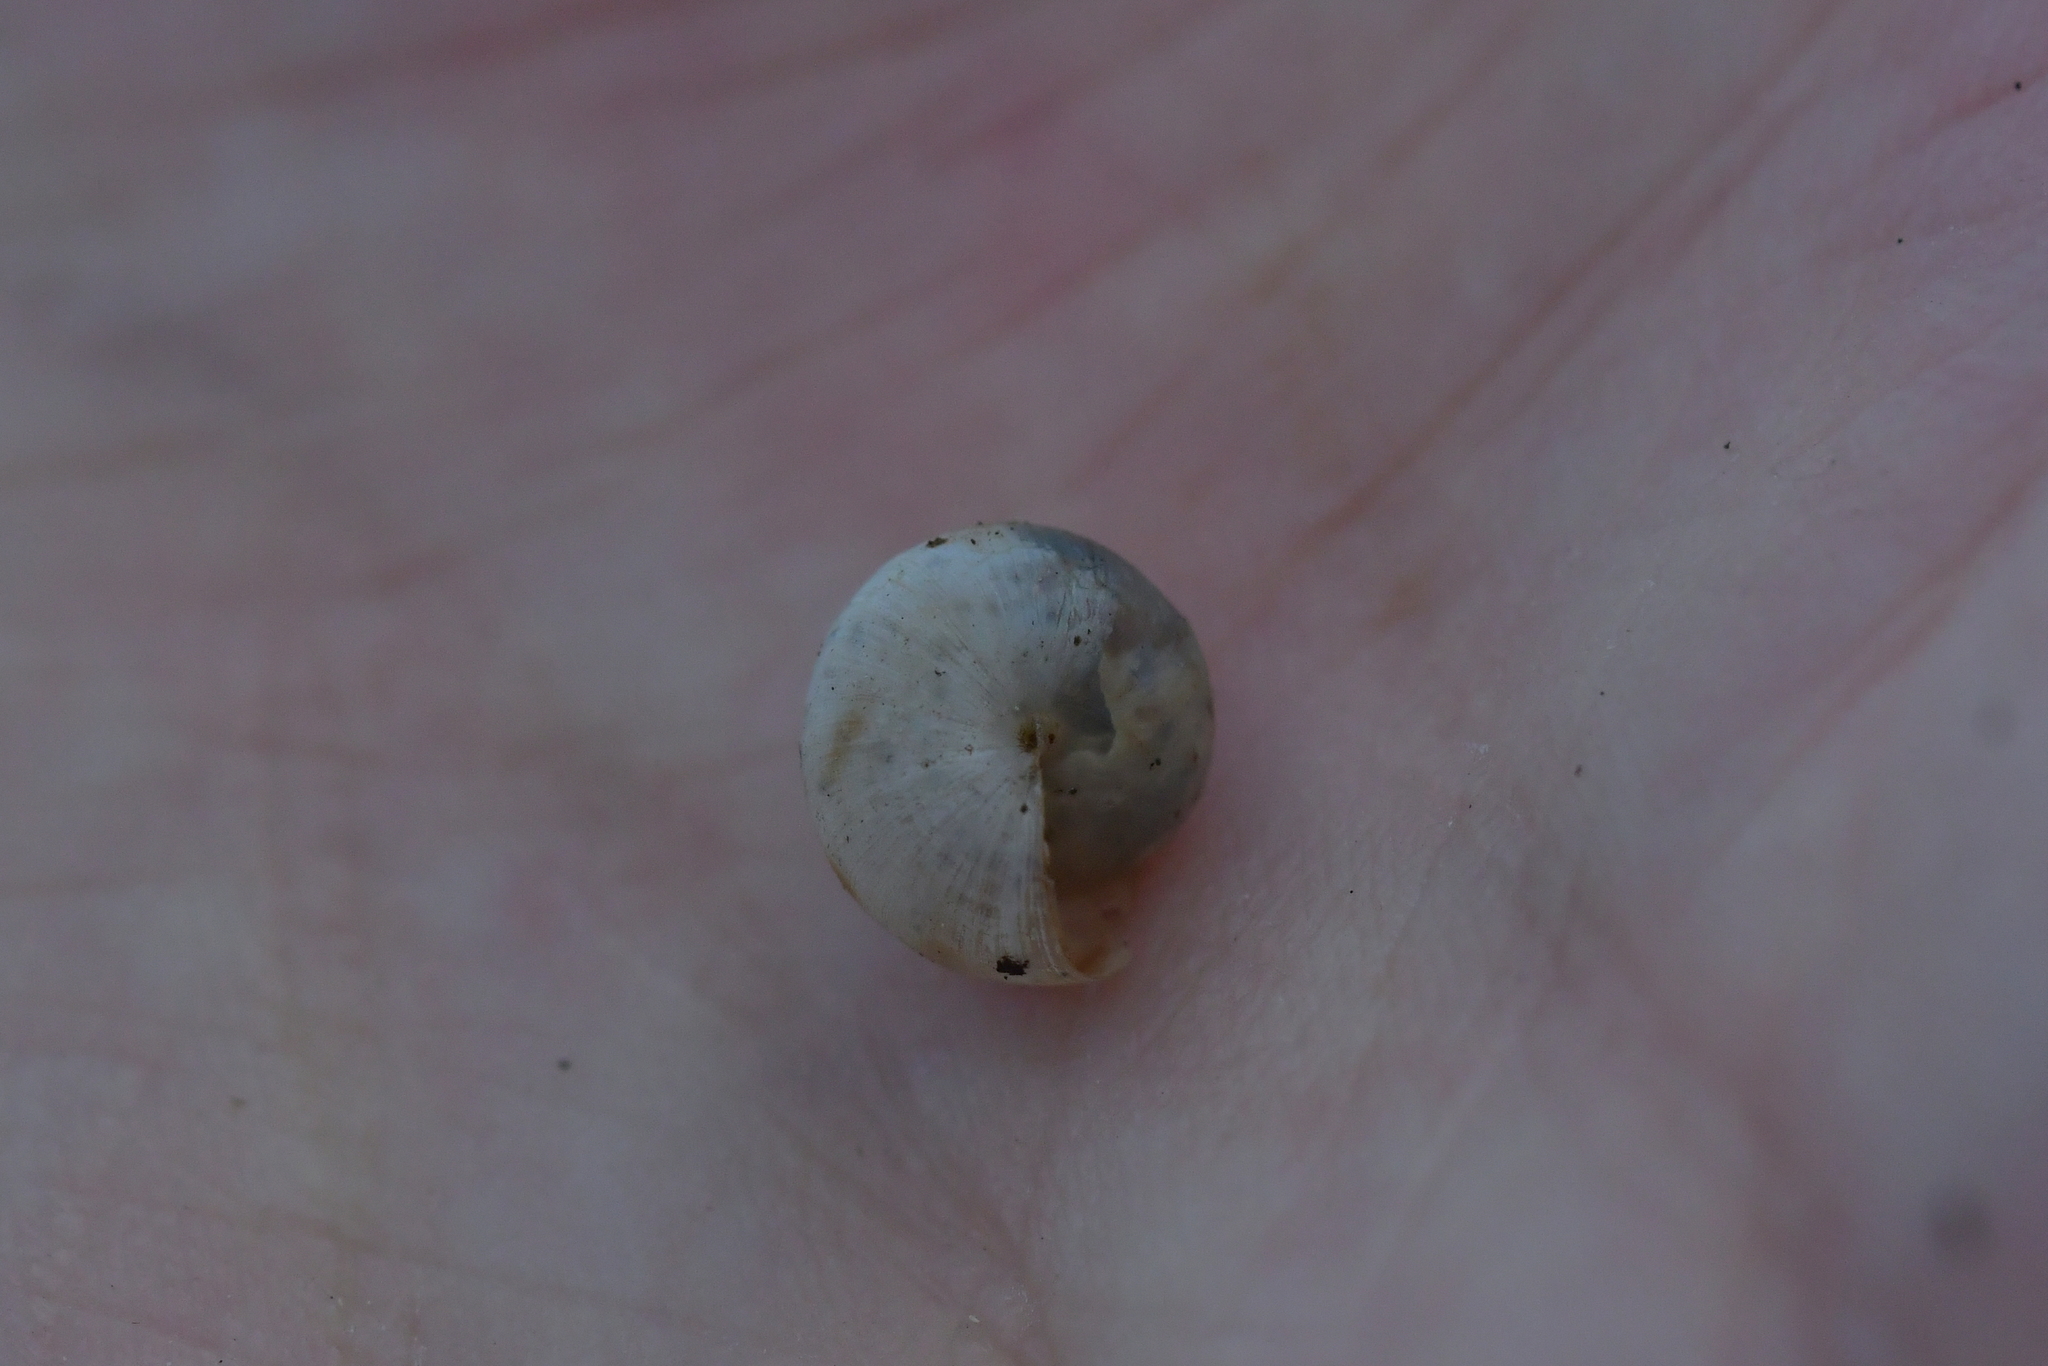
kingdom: Animalia
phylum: Mollusca
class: Gastropoda
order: Stylommatophora
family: Charopidae
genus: Serpho
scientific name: Serpho
